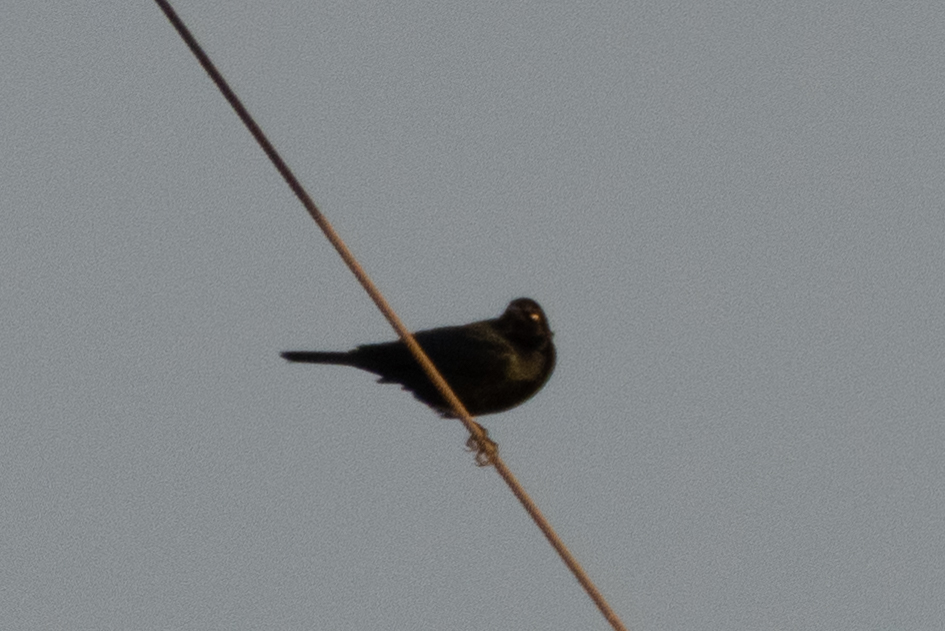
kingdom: Animalia
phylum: Chordata
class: Aves
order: Passeriformes
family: Icteridae
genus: Euphagus
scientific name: Euphagus cyanocephalus
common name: Brewer's blackbird
